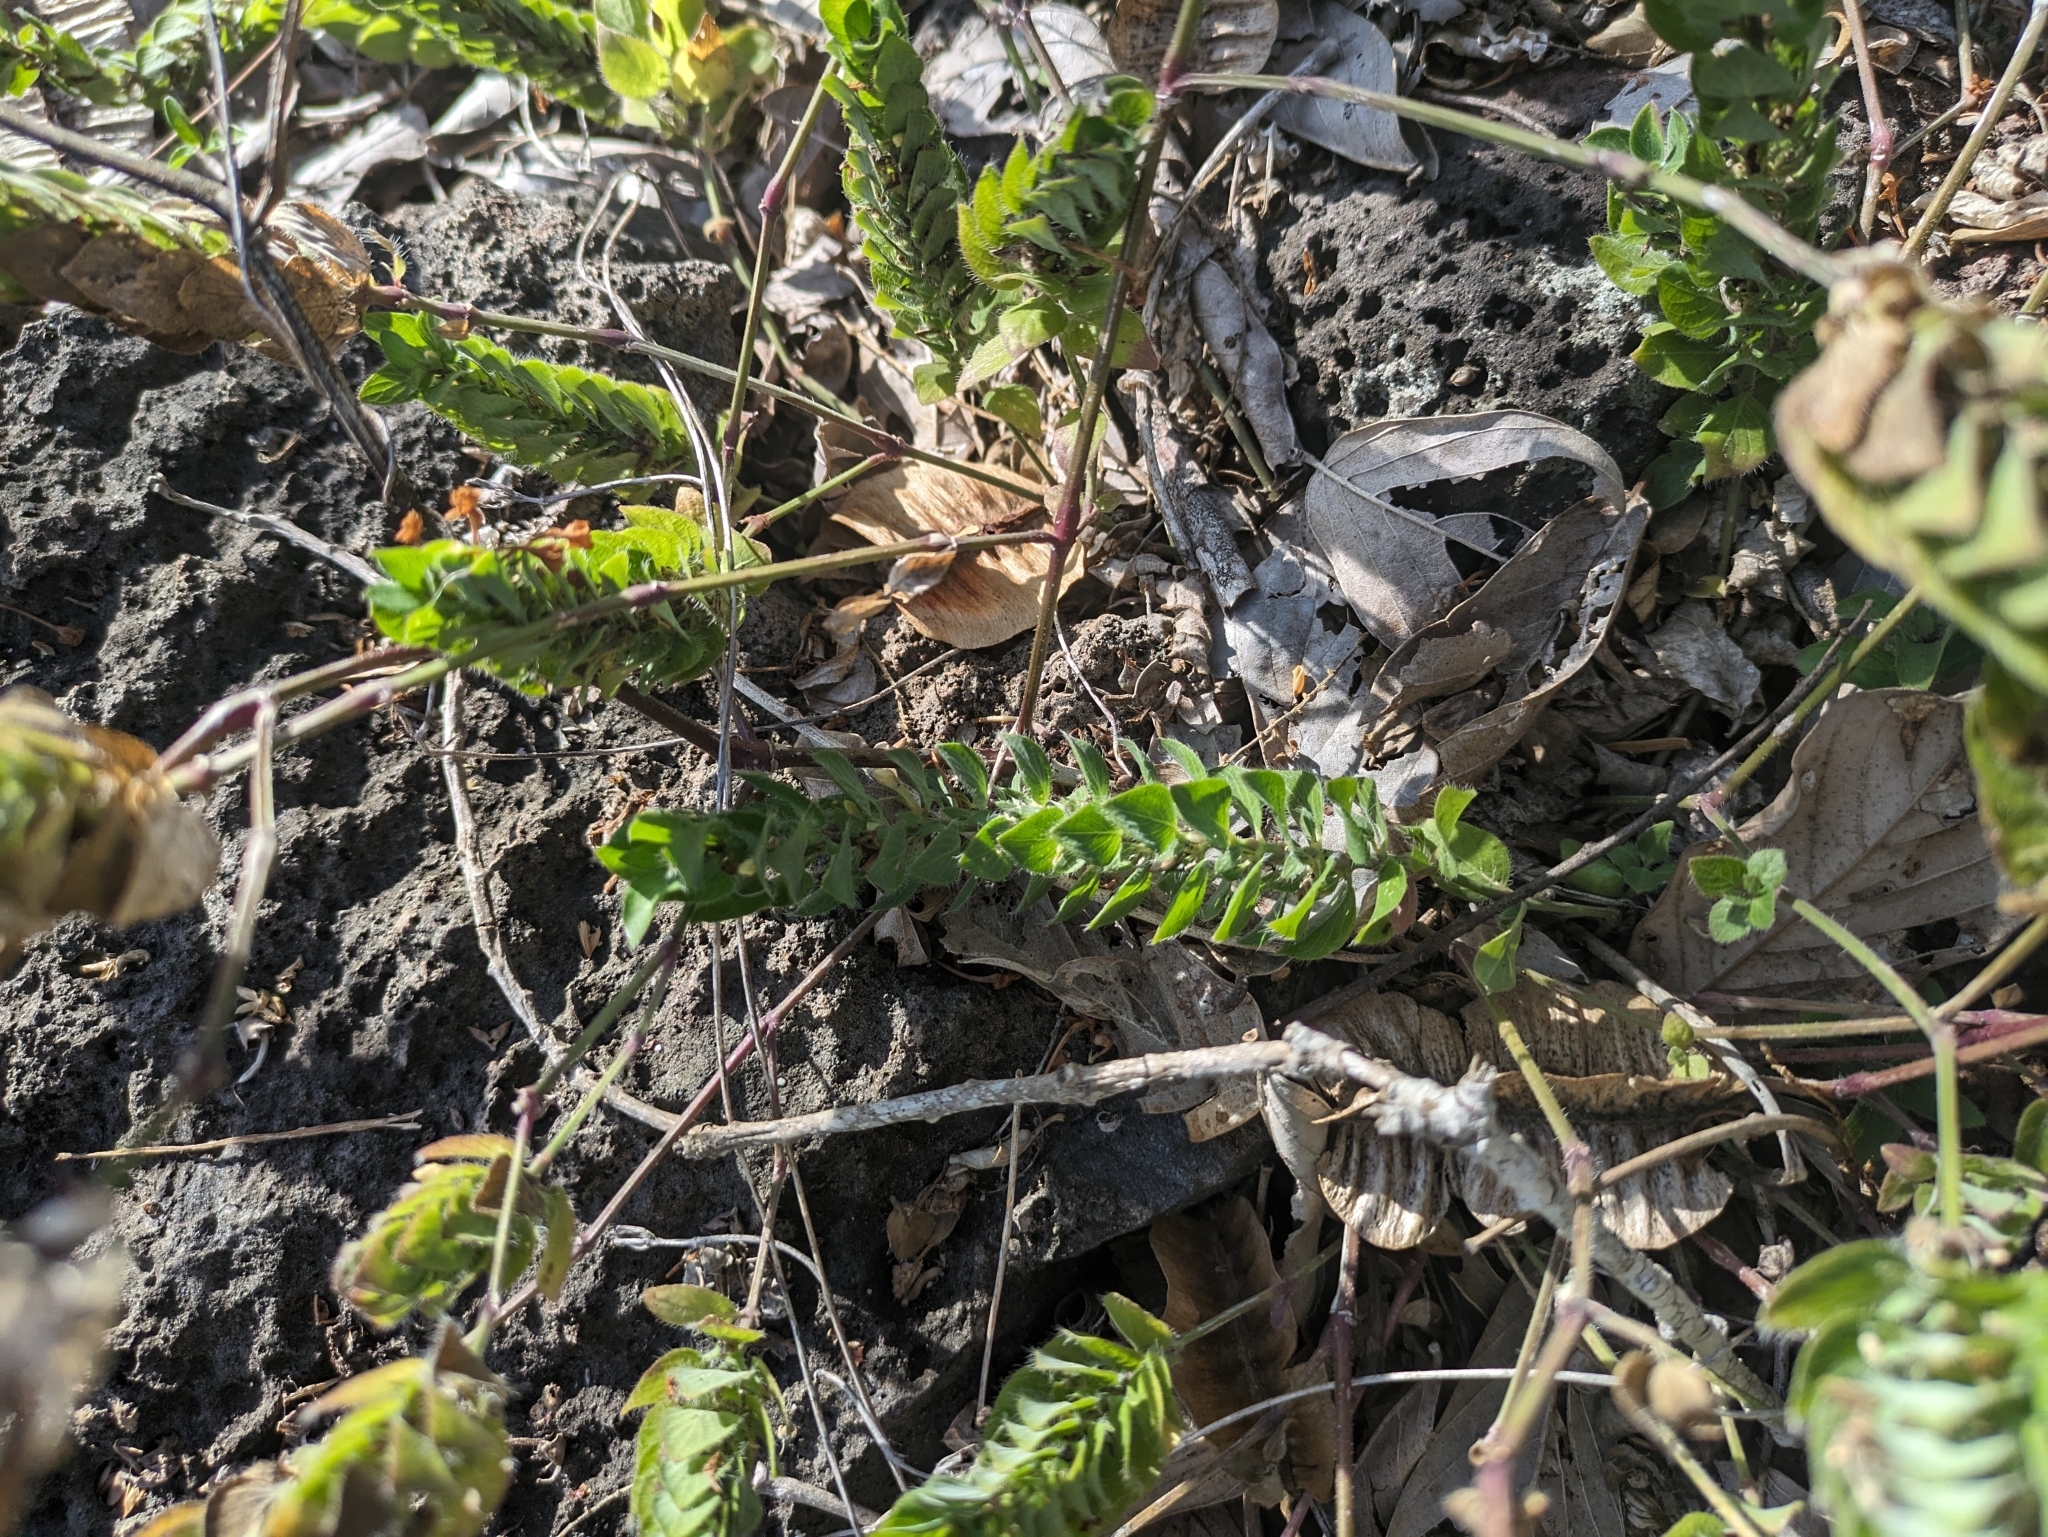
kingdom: Plantae
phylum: Tracheophyta
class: Magnoliopsida
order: Lamiales
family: Acanthaceae
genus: Ruellia
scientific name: Ruellia blechum
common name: Browne's blechum
